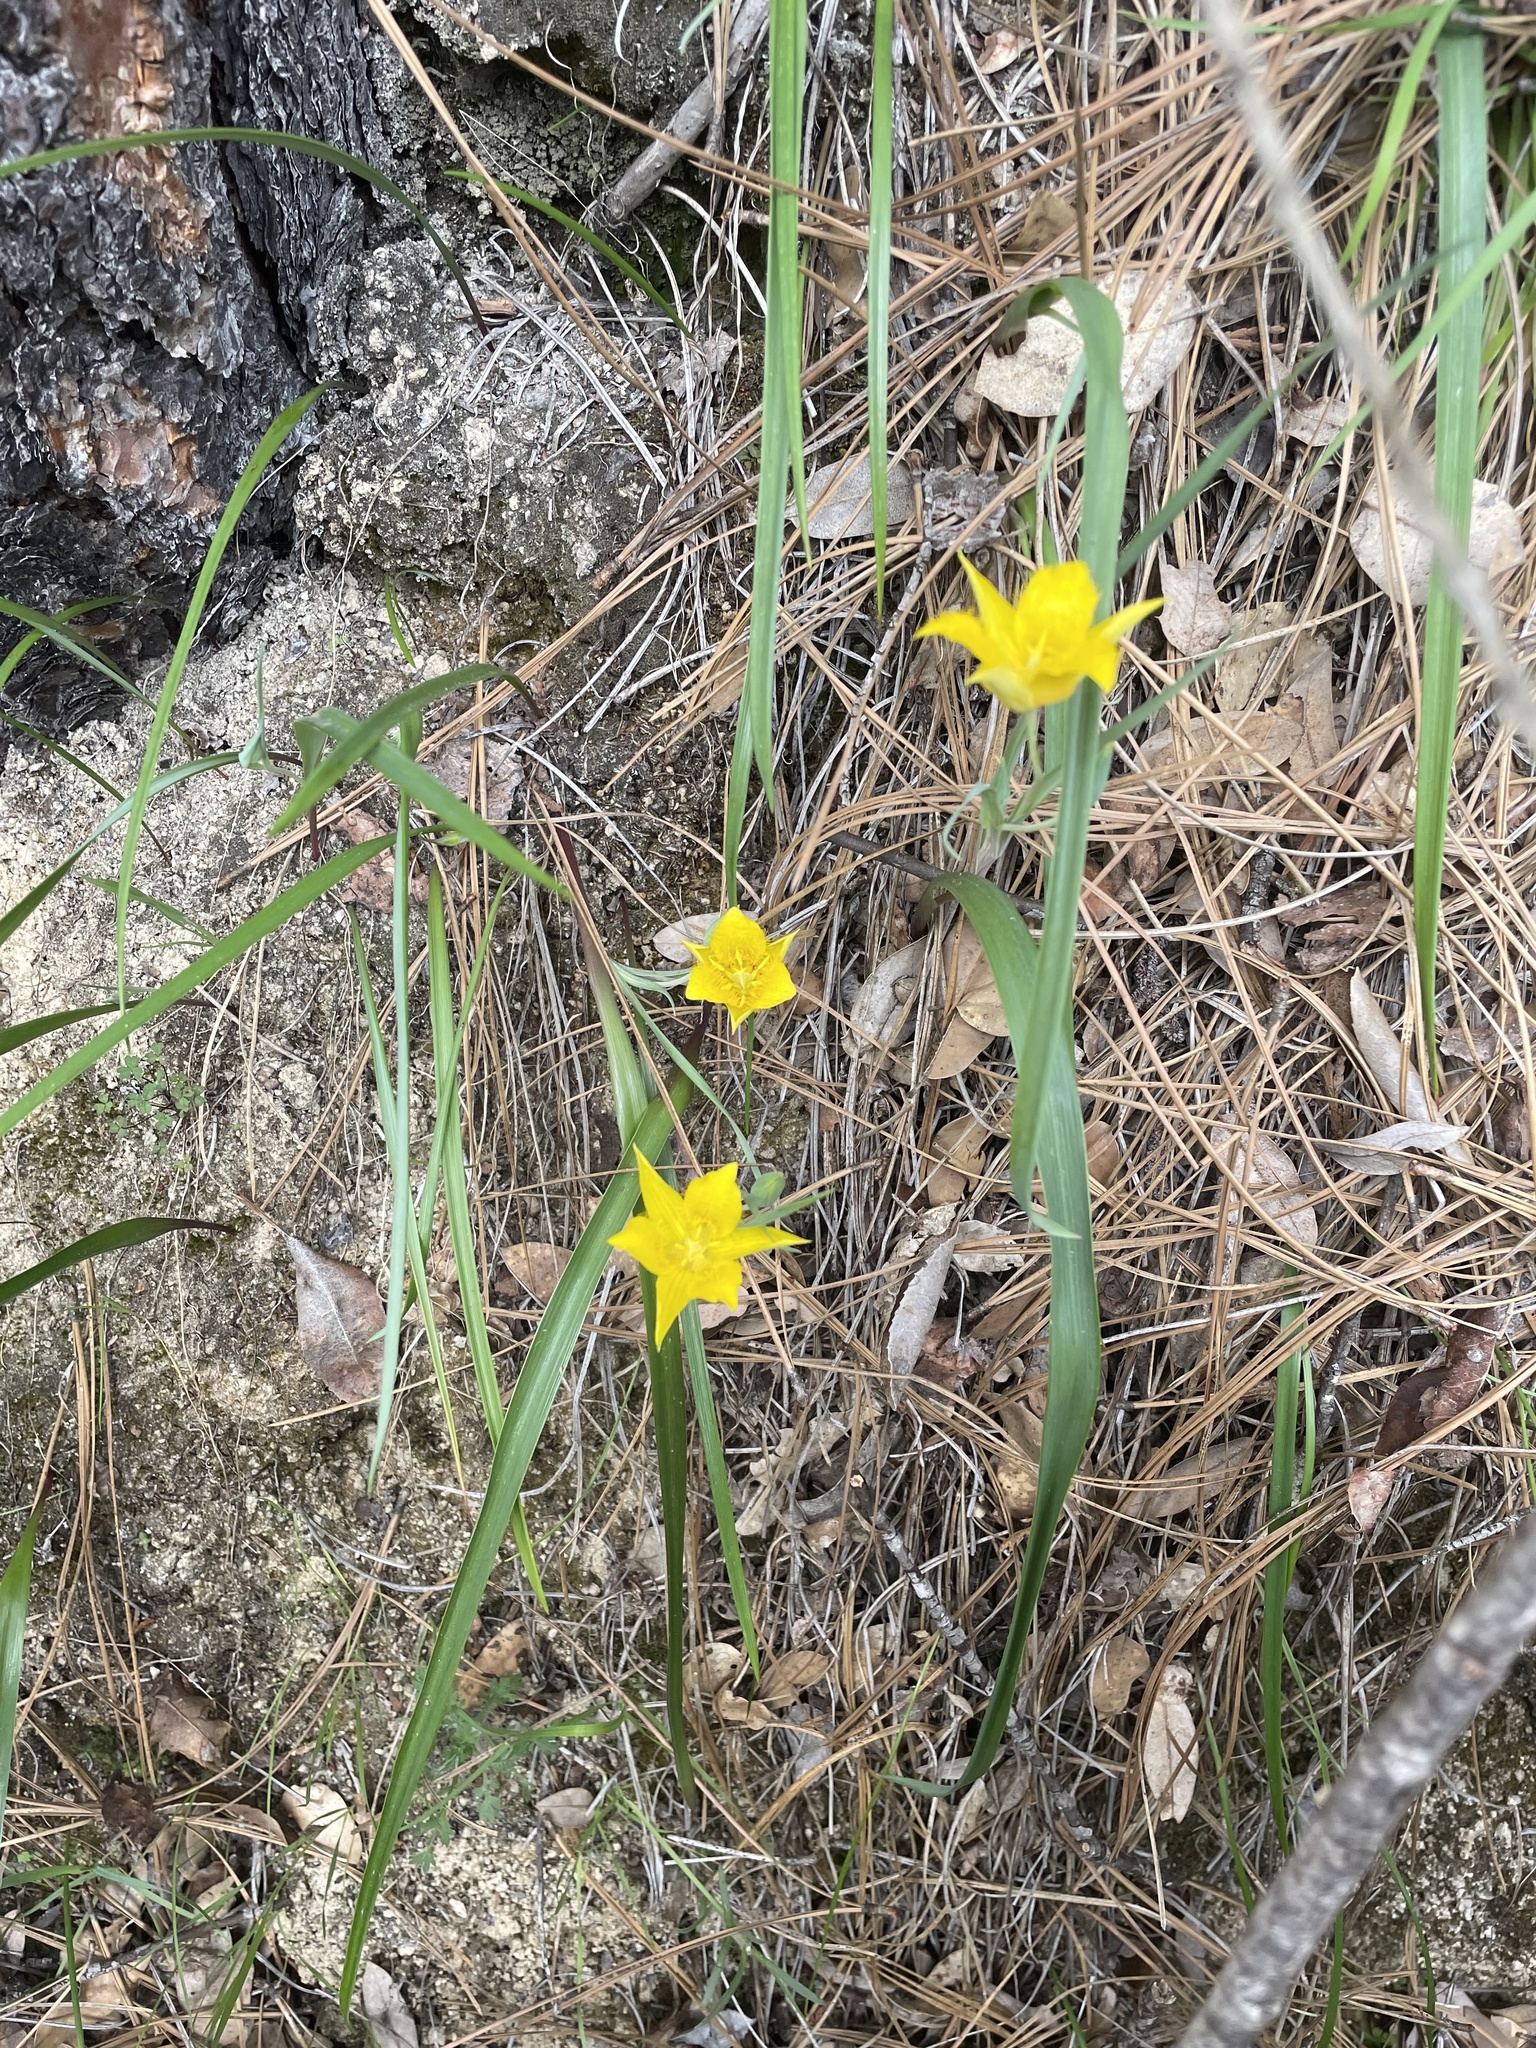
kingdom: Plantae
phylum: Tracheophyta
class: Liliopsida
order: Liliales
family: Liliaceae
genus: Calochortus
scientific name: Calochortus monophyllus
